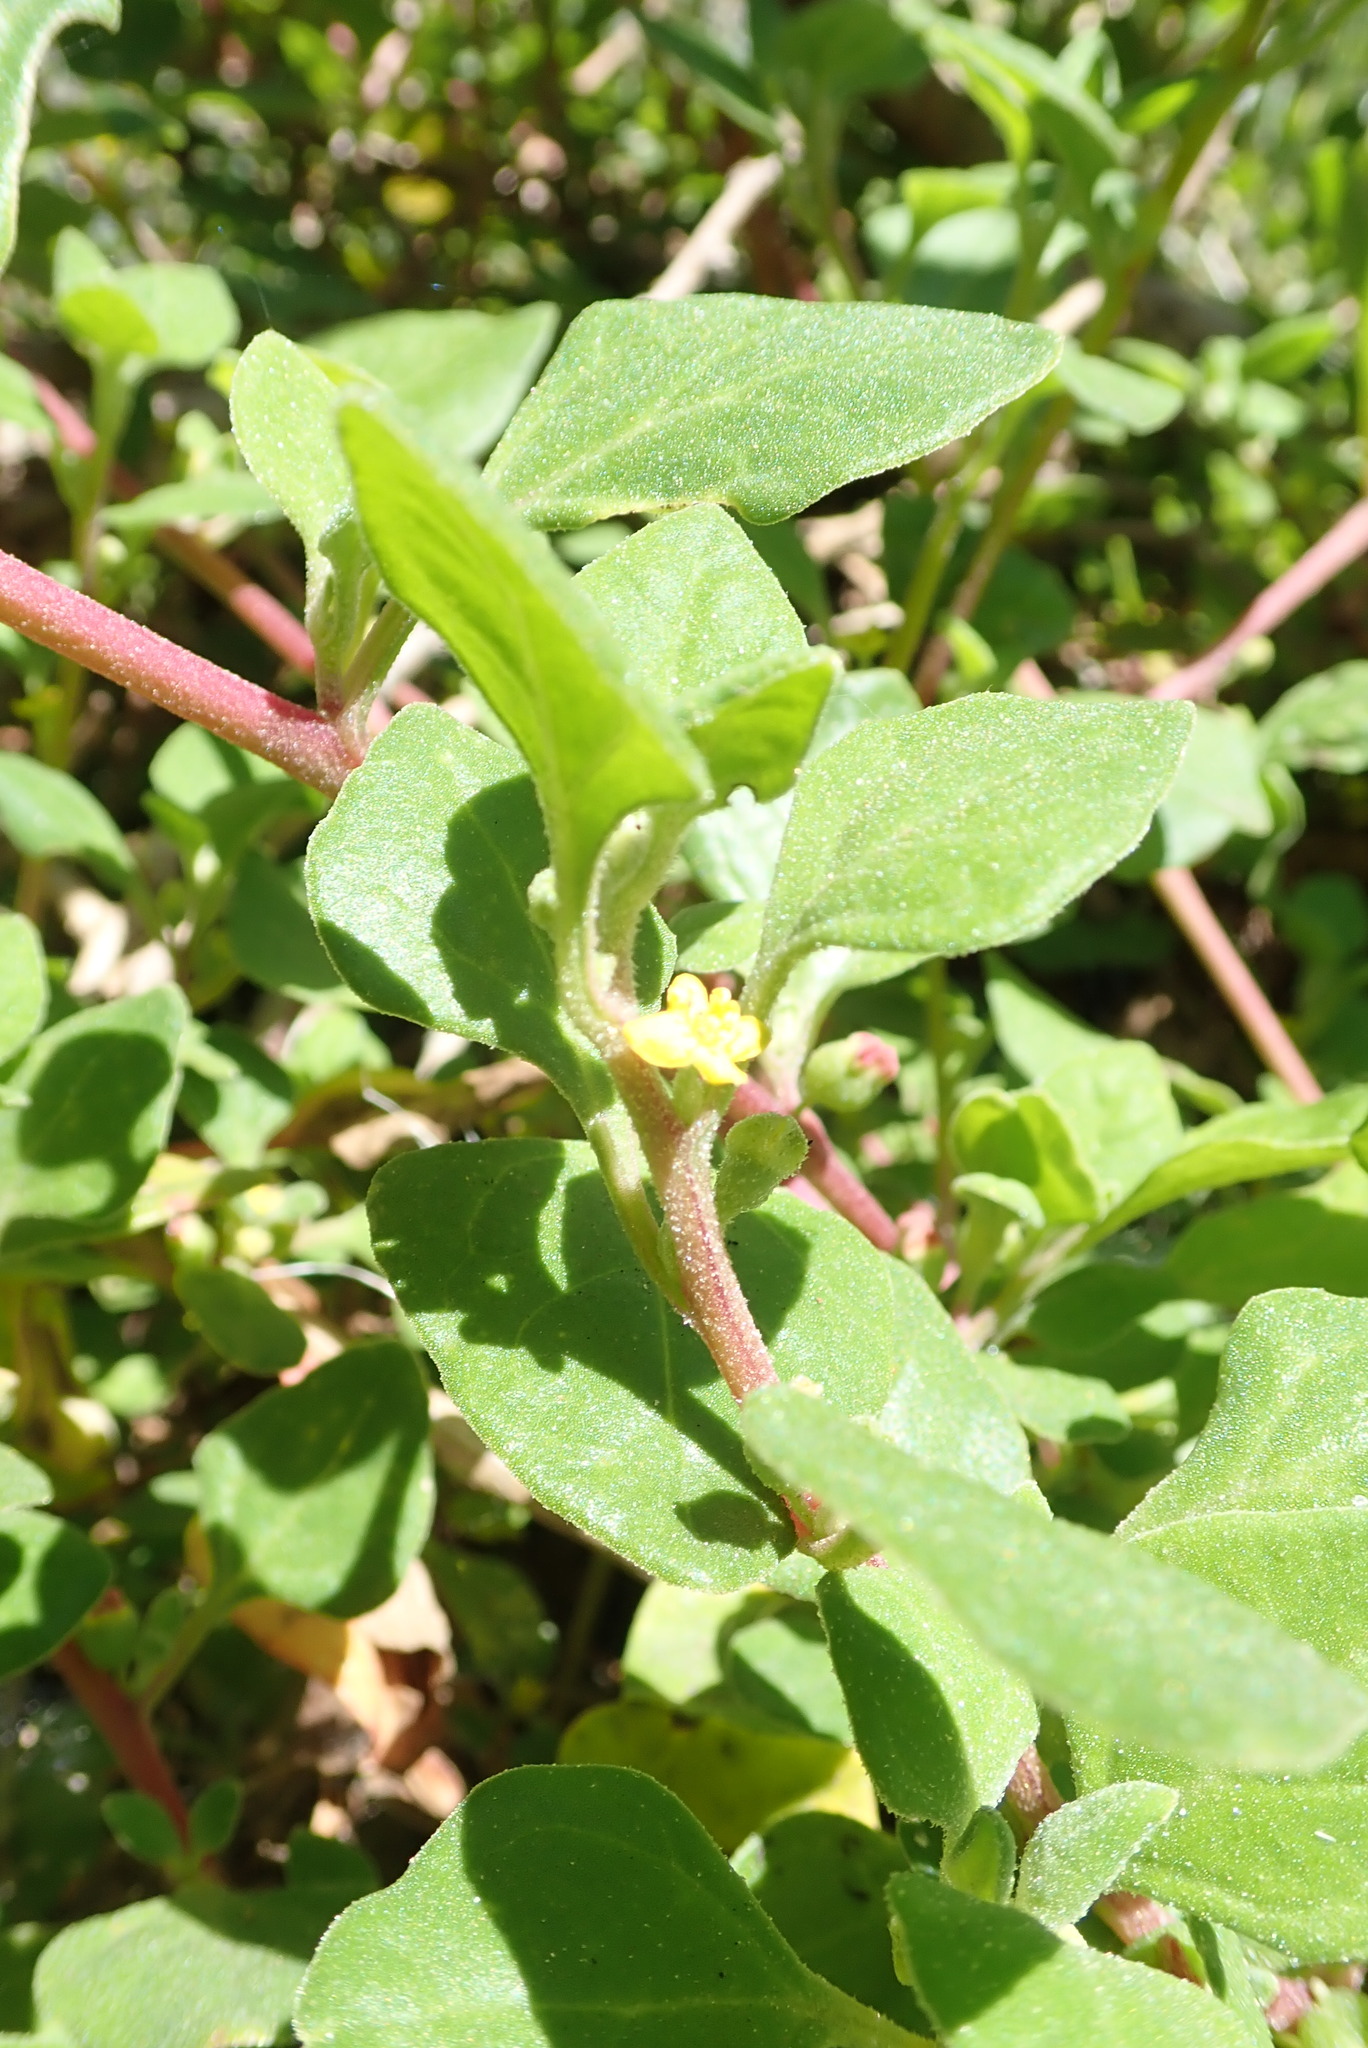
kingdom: Plantae
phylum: Tracheophyta
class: Magnoliopsida
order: Caryophyllales
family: Aizoaceae
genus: Tetragonia
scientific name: Tetragonia implexicoma
